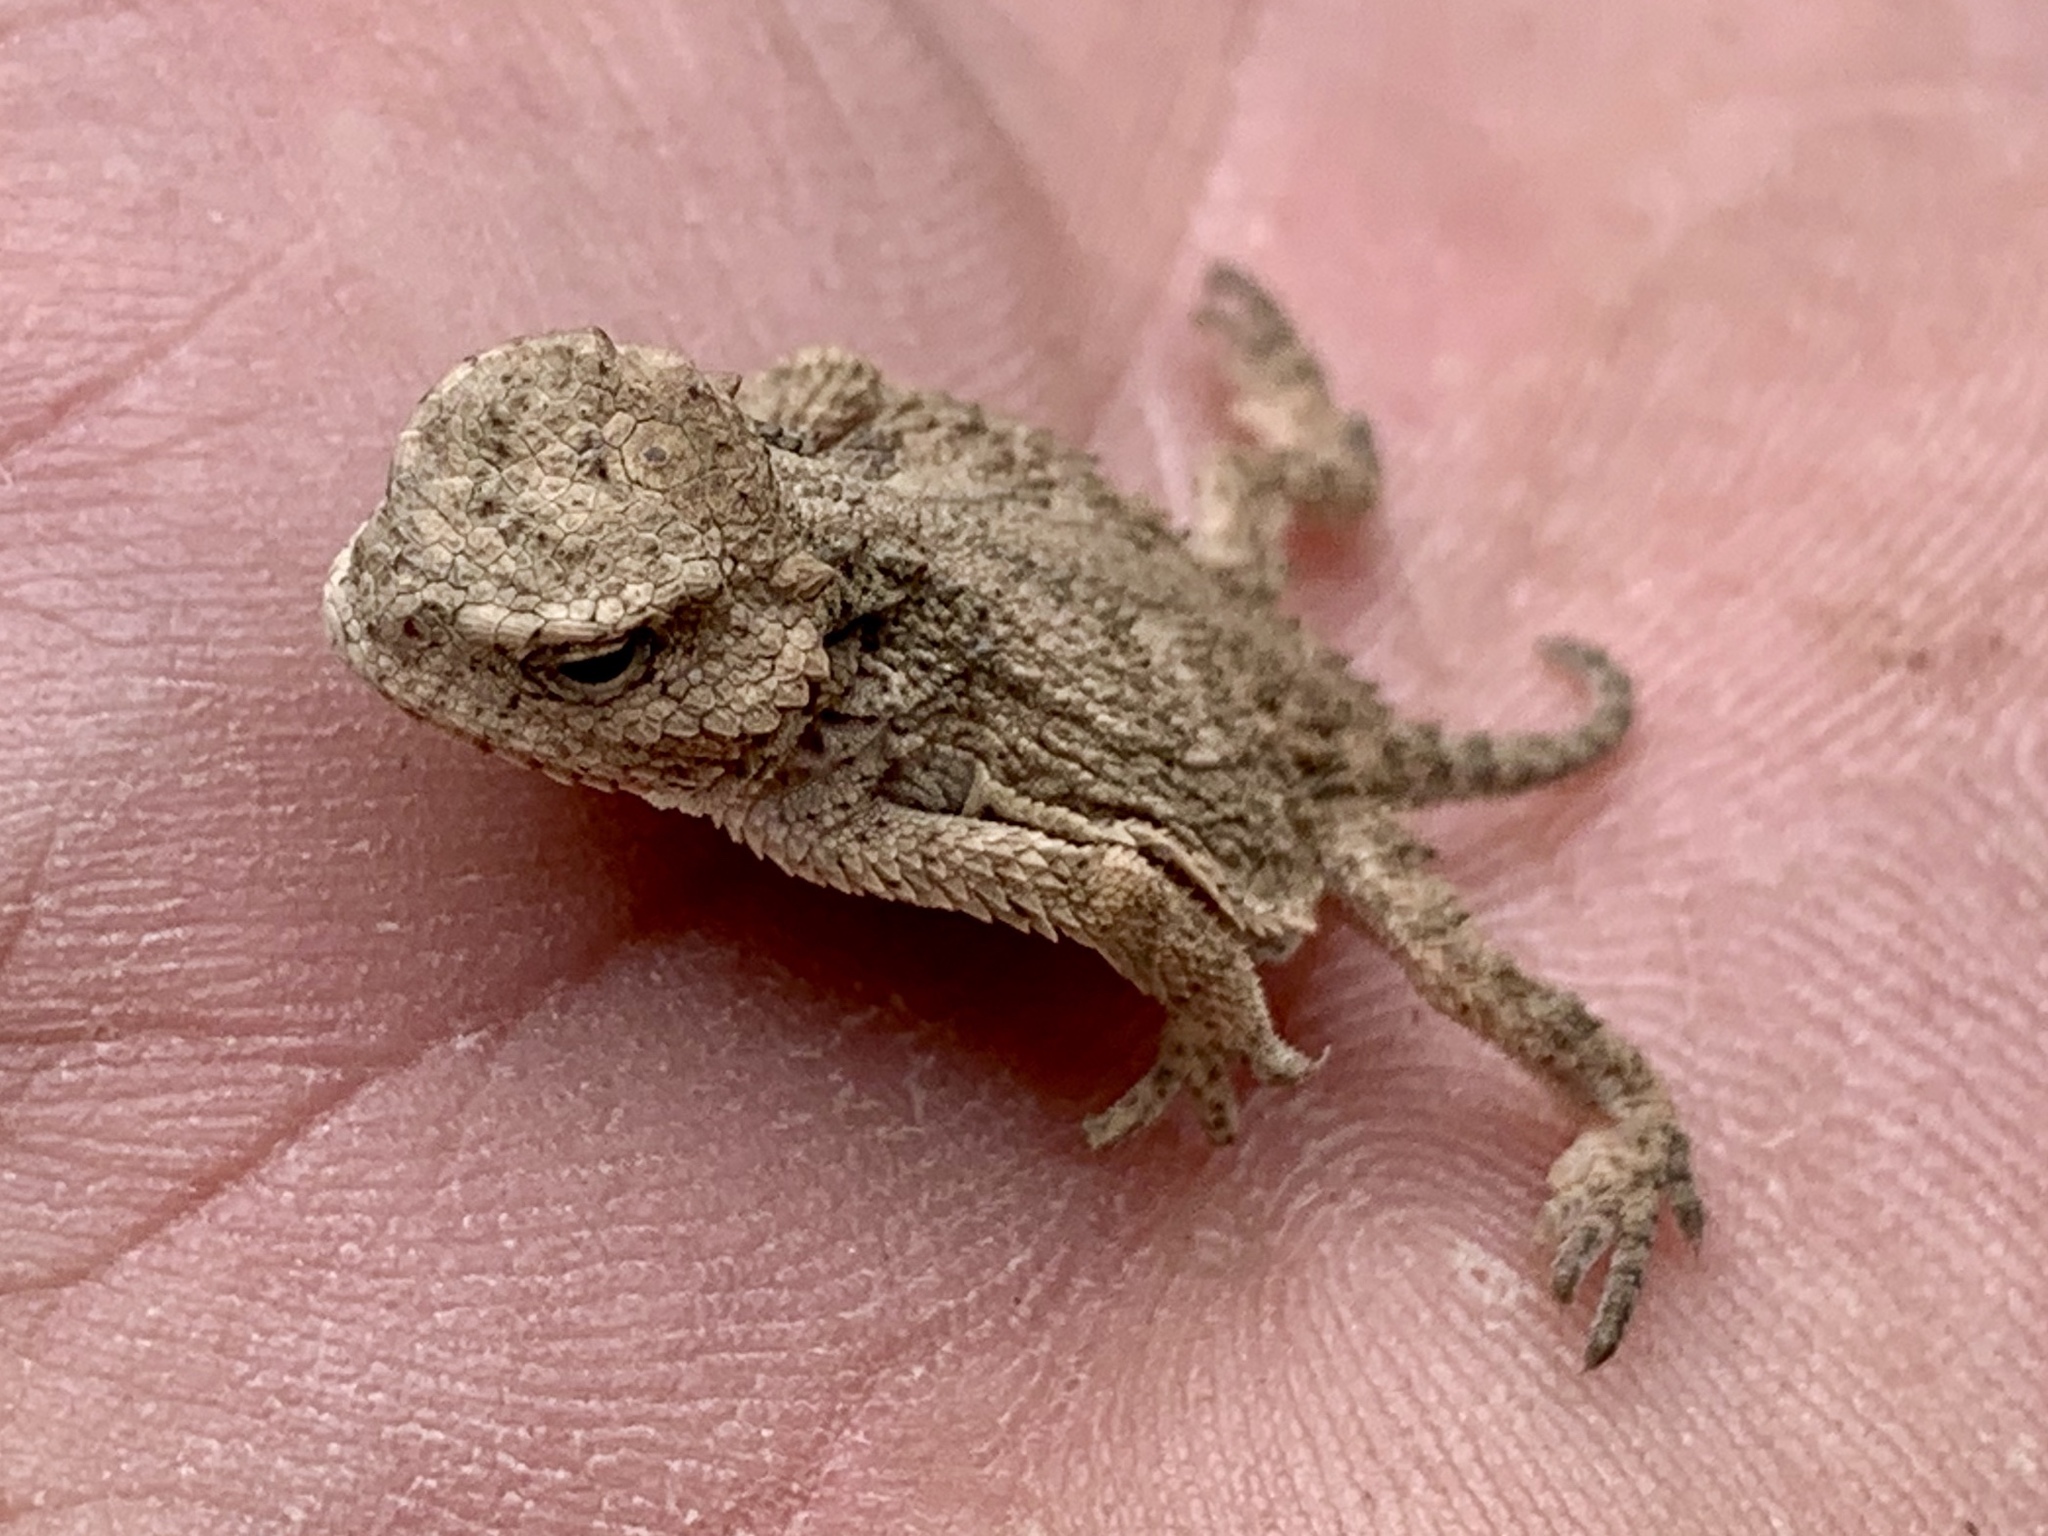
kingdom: Animalia
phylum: Chordata
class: Squamata
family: Phrynosomatidae
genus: Phrynosoma
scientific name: Phrynosoma hernandesi
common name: Greater short-horned lizard
